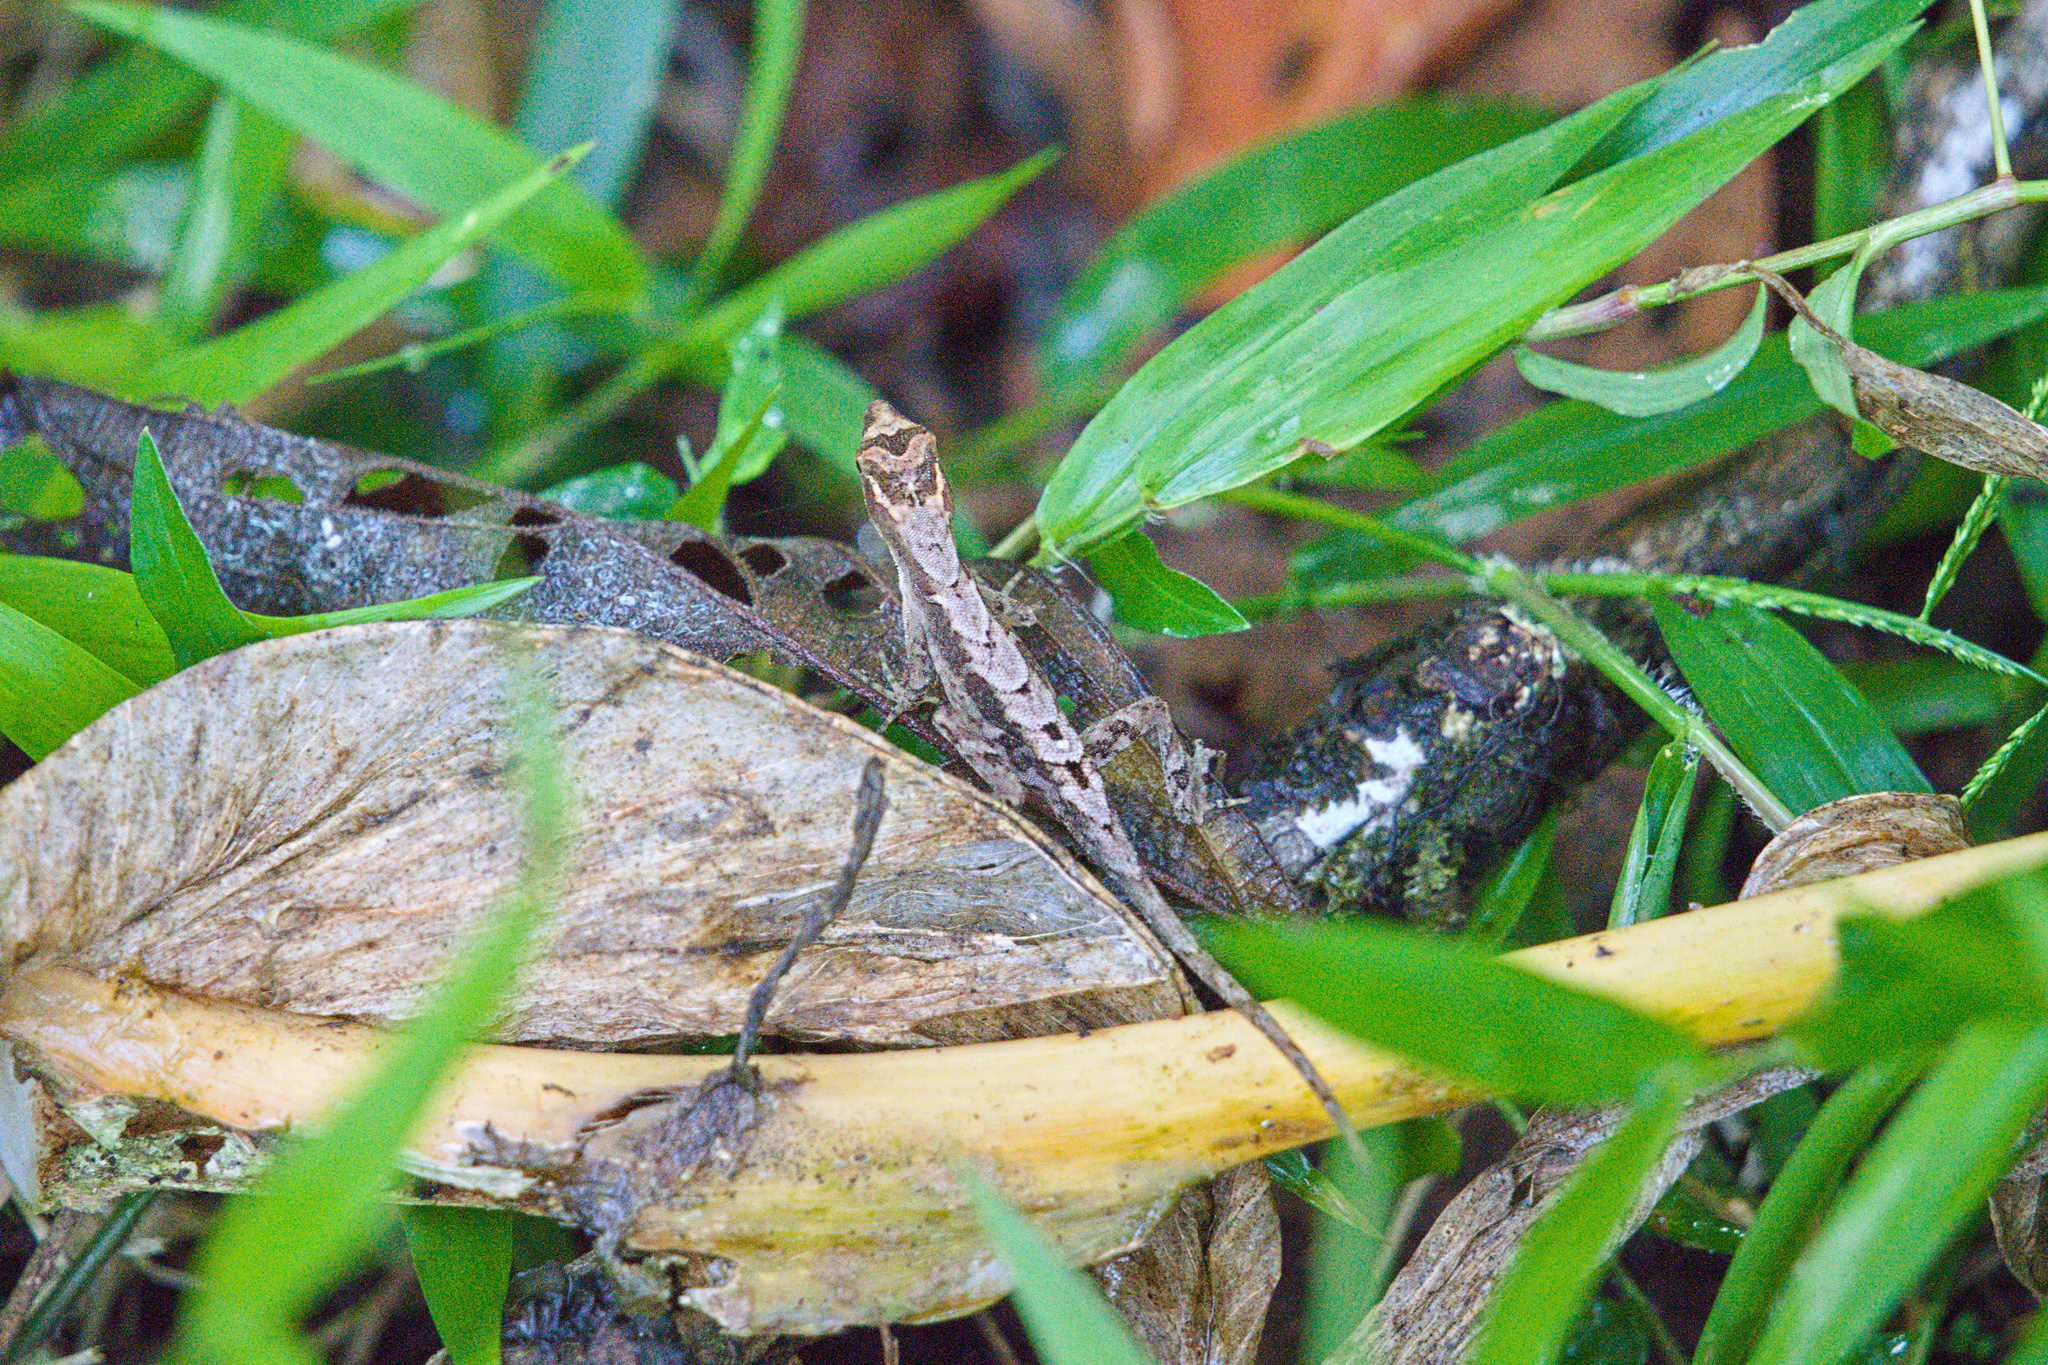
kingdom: Animalia
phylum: Chordata
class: Squamata
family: Dactyloidae
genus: Anolis
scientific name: Anolis humilis
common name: Humble anole
